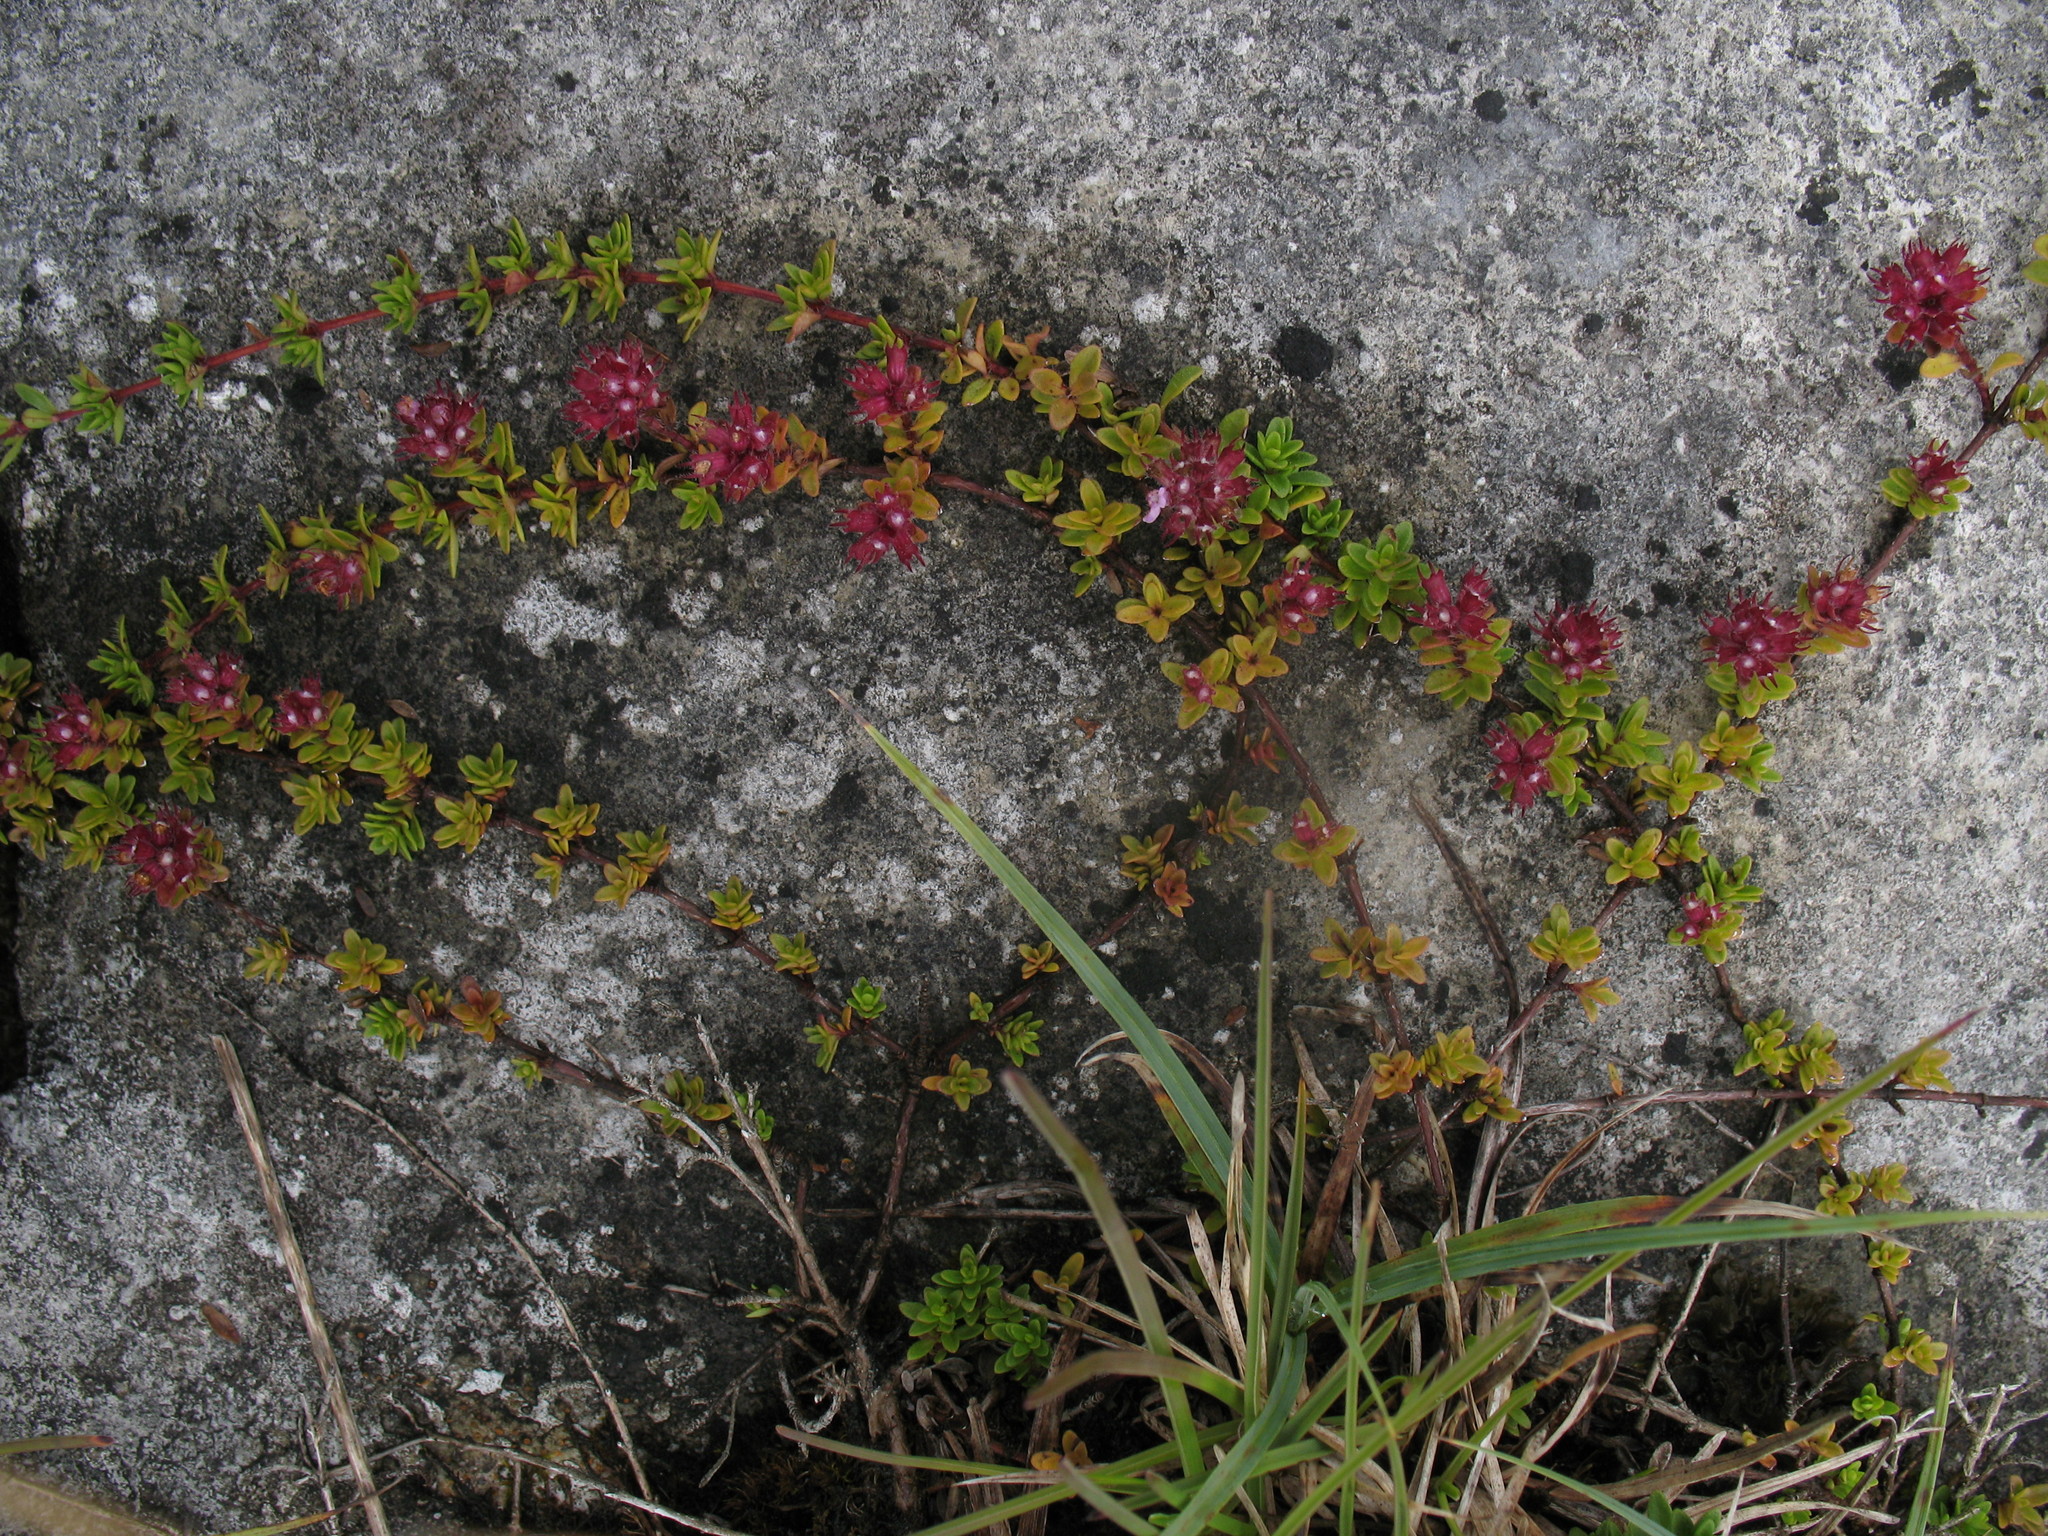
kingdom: Plantae
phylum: Tracheophyta
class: Magnoliopsida
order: Lamiales
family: Lamiaceae
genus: Thymus
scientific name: Thymus praecox
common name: Wild thyme
